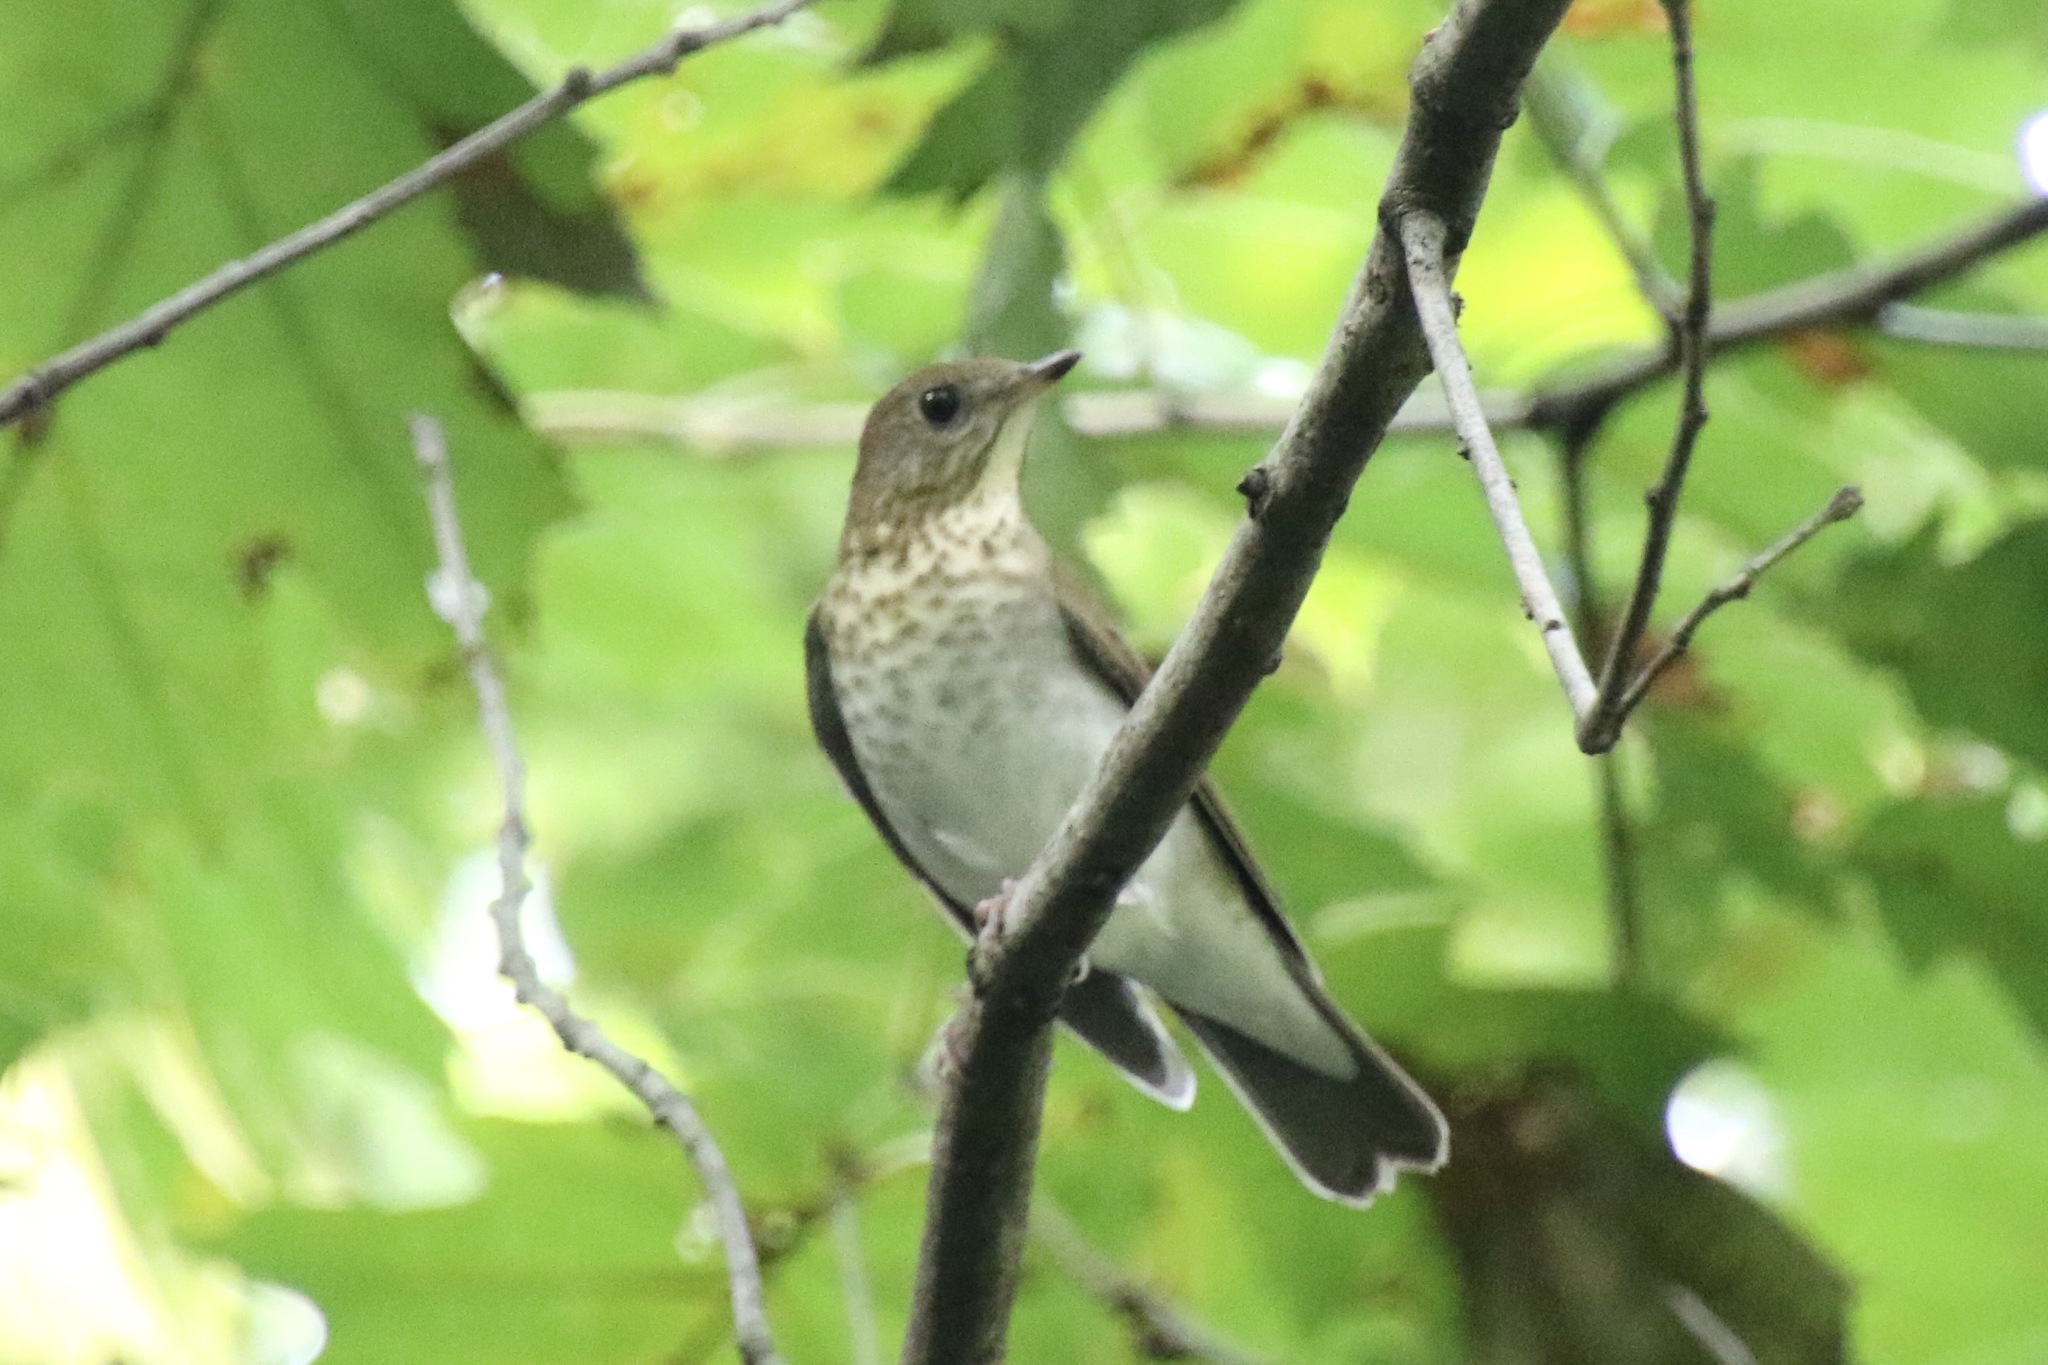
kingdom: Animalia
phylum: Chordata
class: Aves
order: Passeriformes
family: Turdidae
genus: Catharus
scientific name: Catharus minimus
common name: Grey-cheeked thrush
